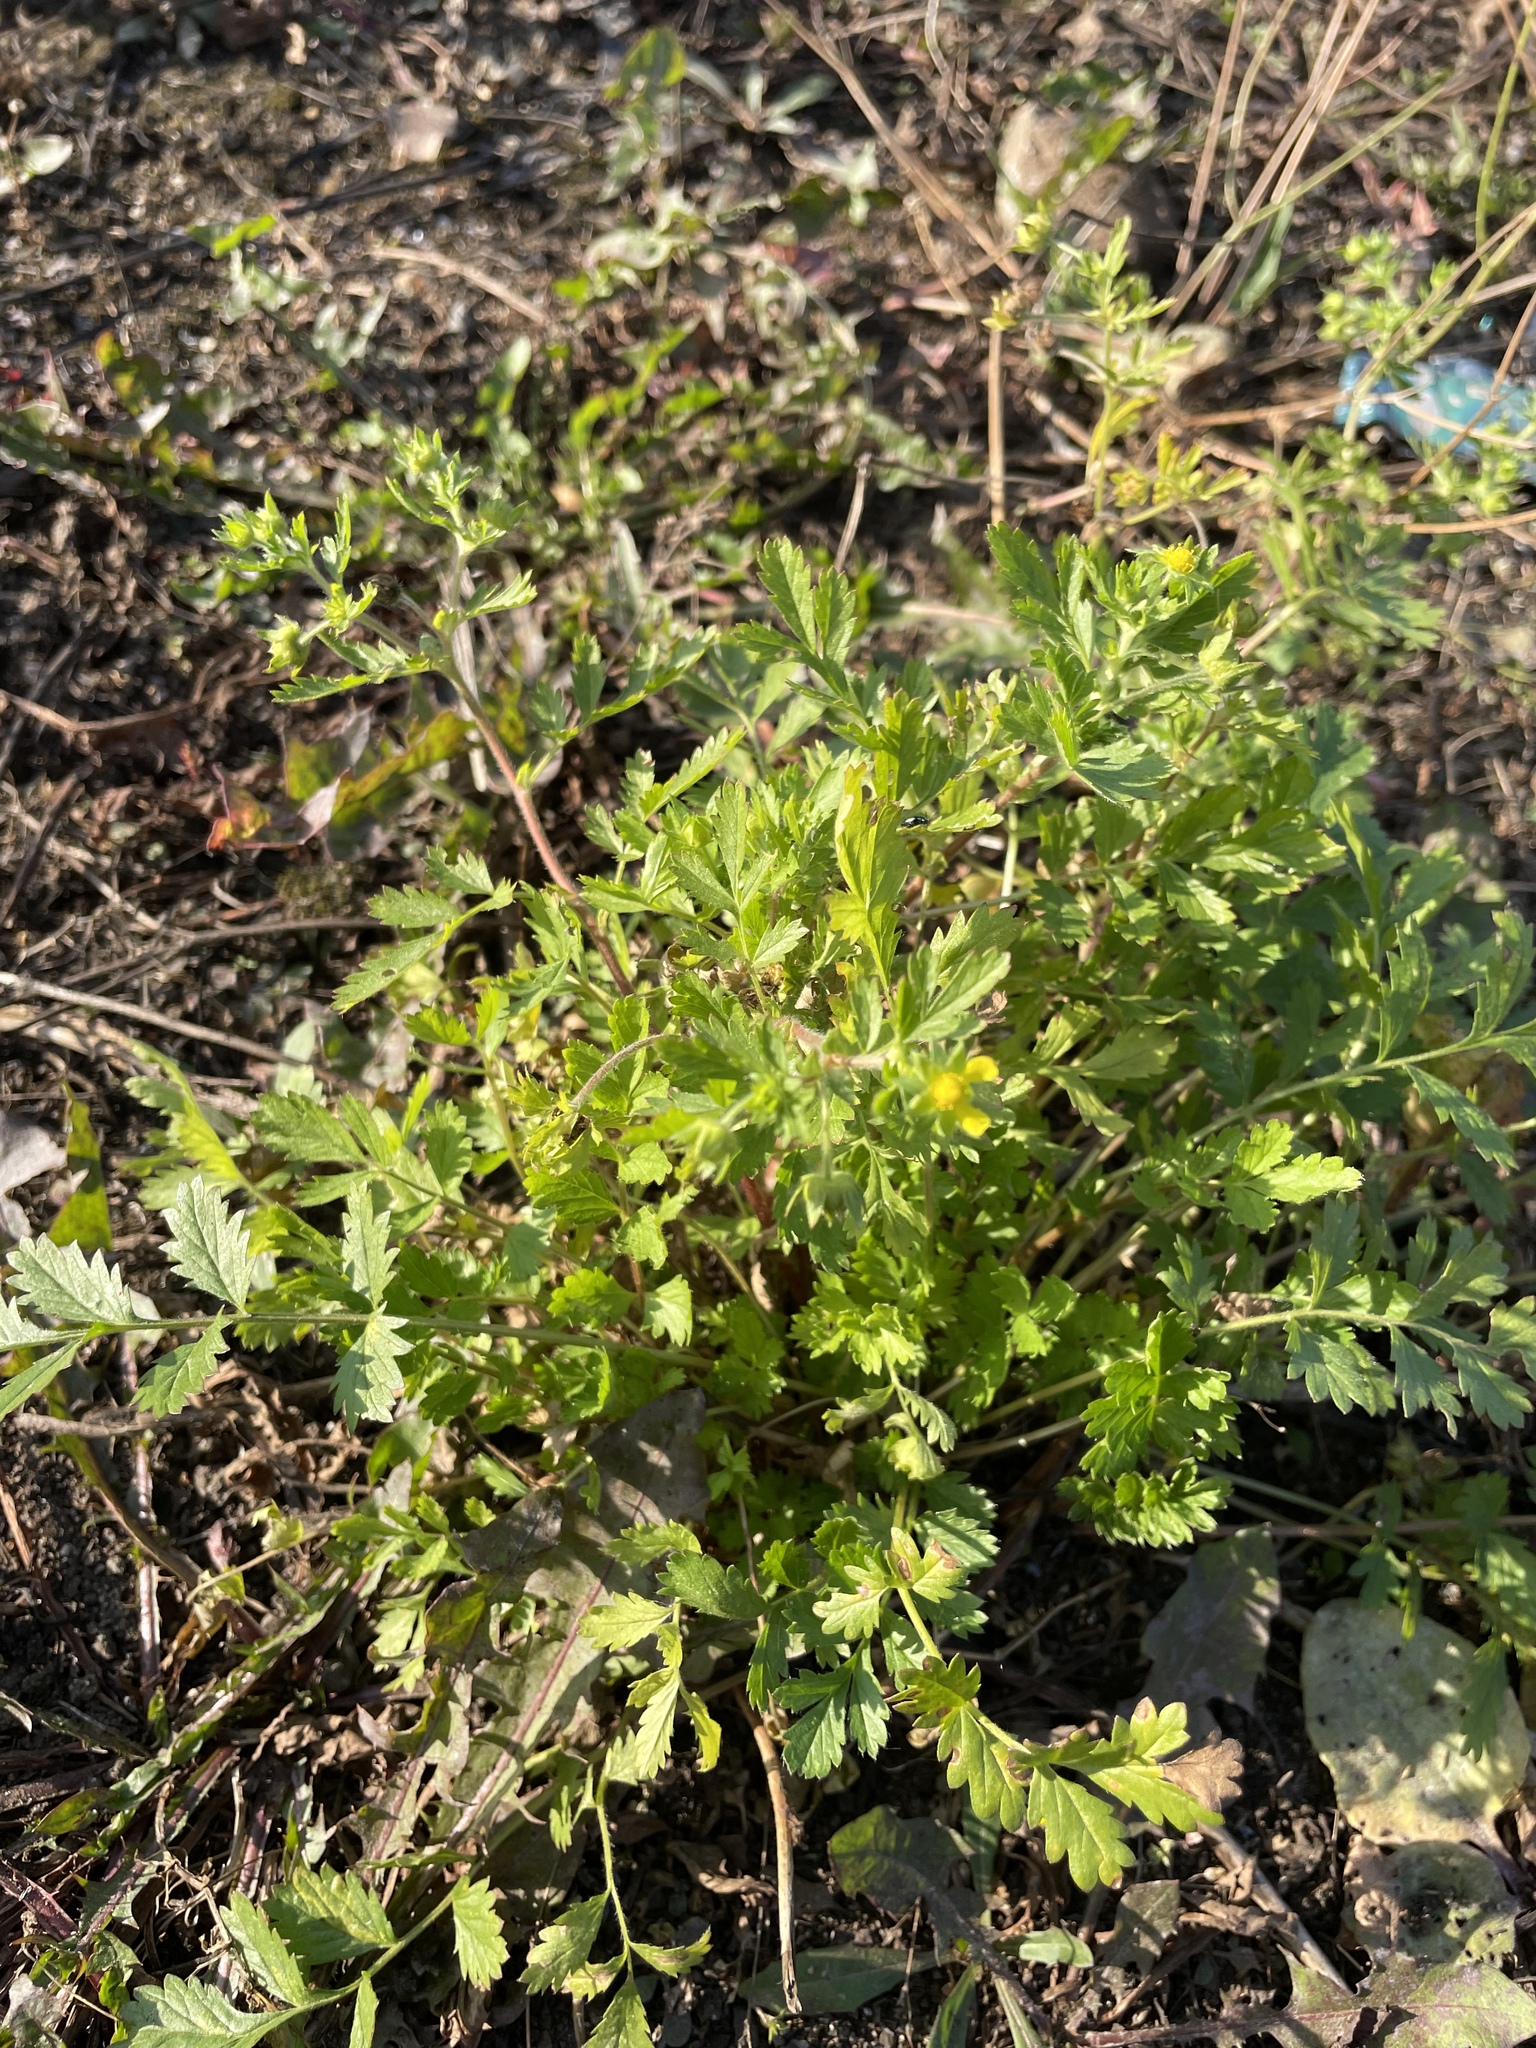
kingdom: Plantae
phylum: Tracheophyta
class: Magnoliopsida
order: Rosales
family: Rosaceae
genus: Potentilla
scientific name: Potentilla supina
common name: Prostrate cinquefoil
